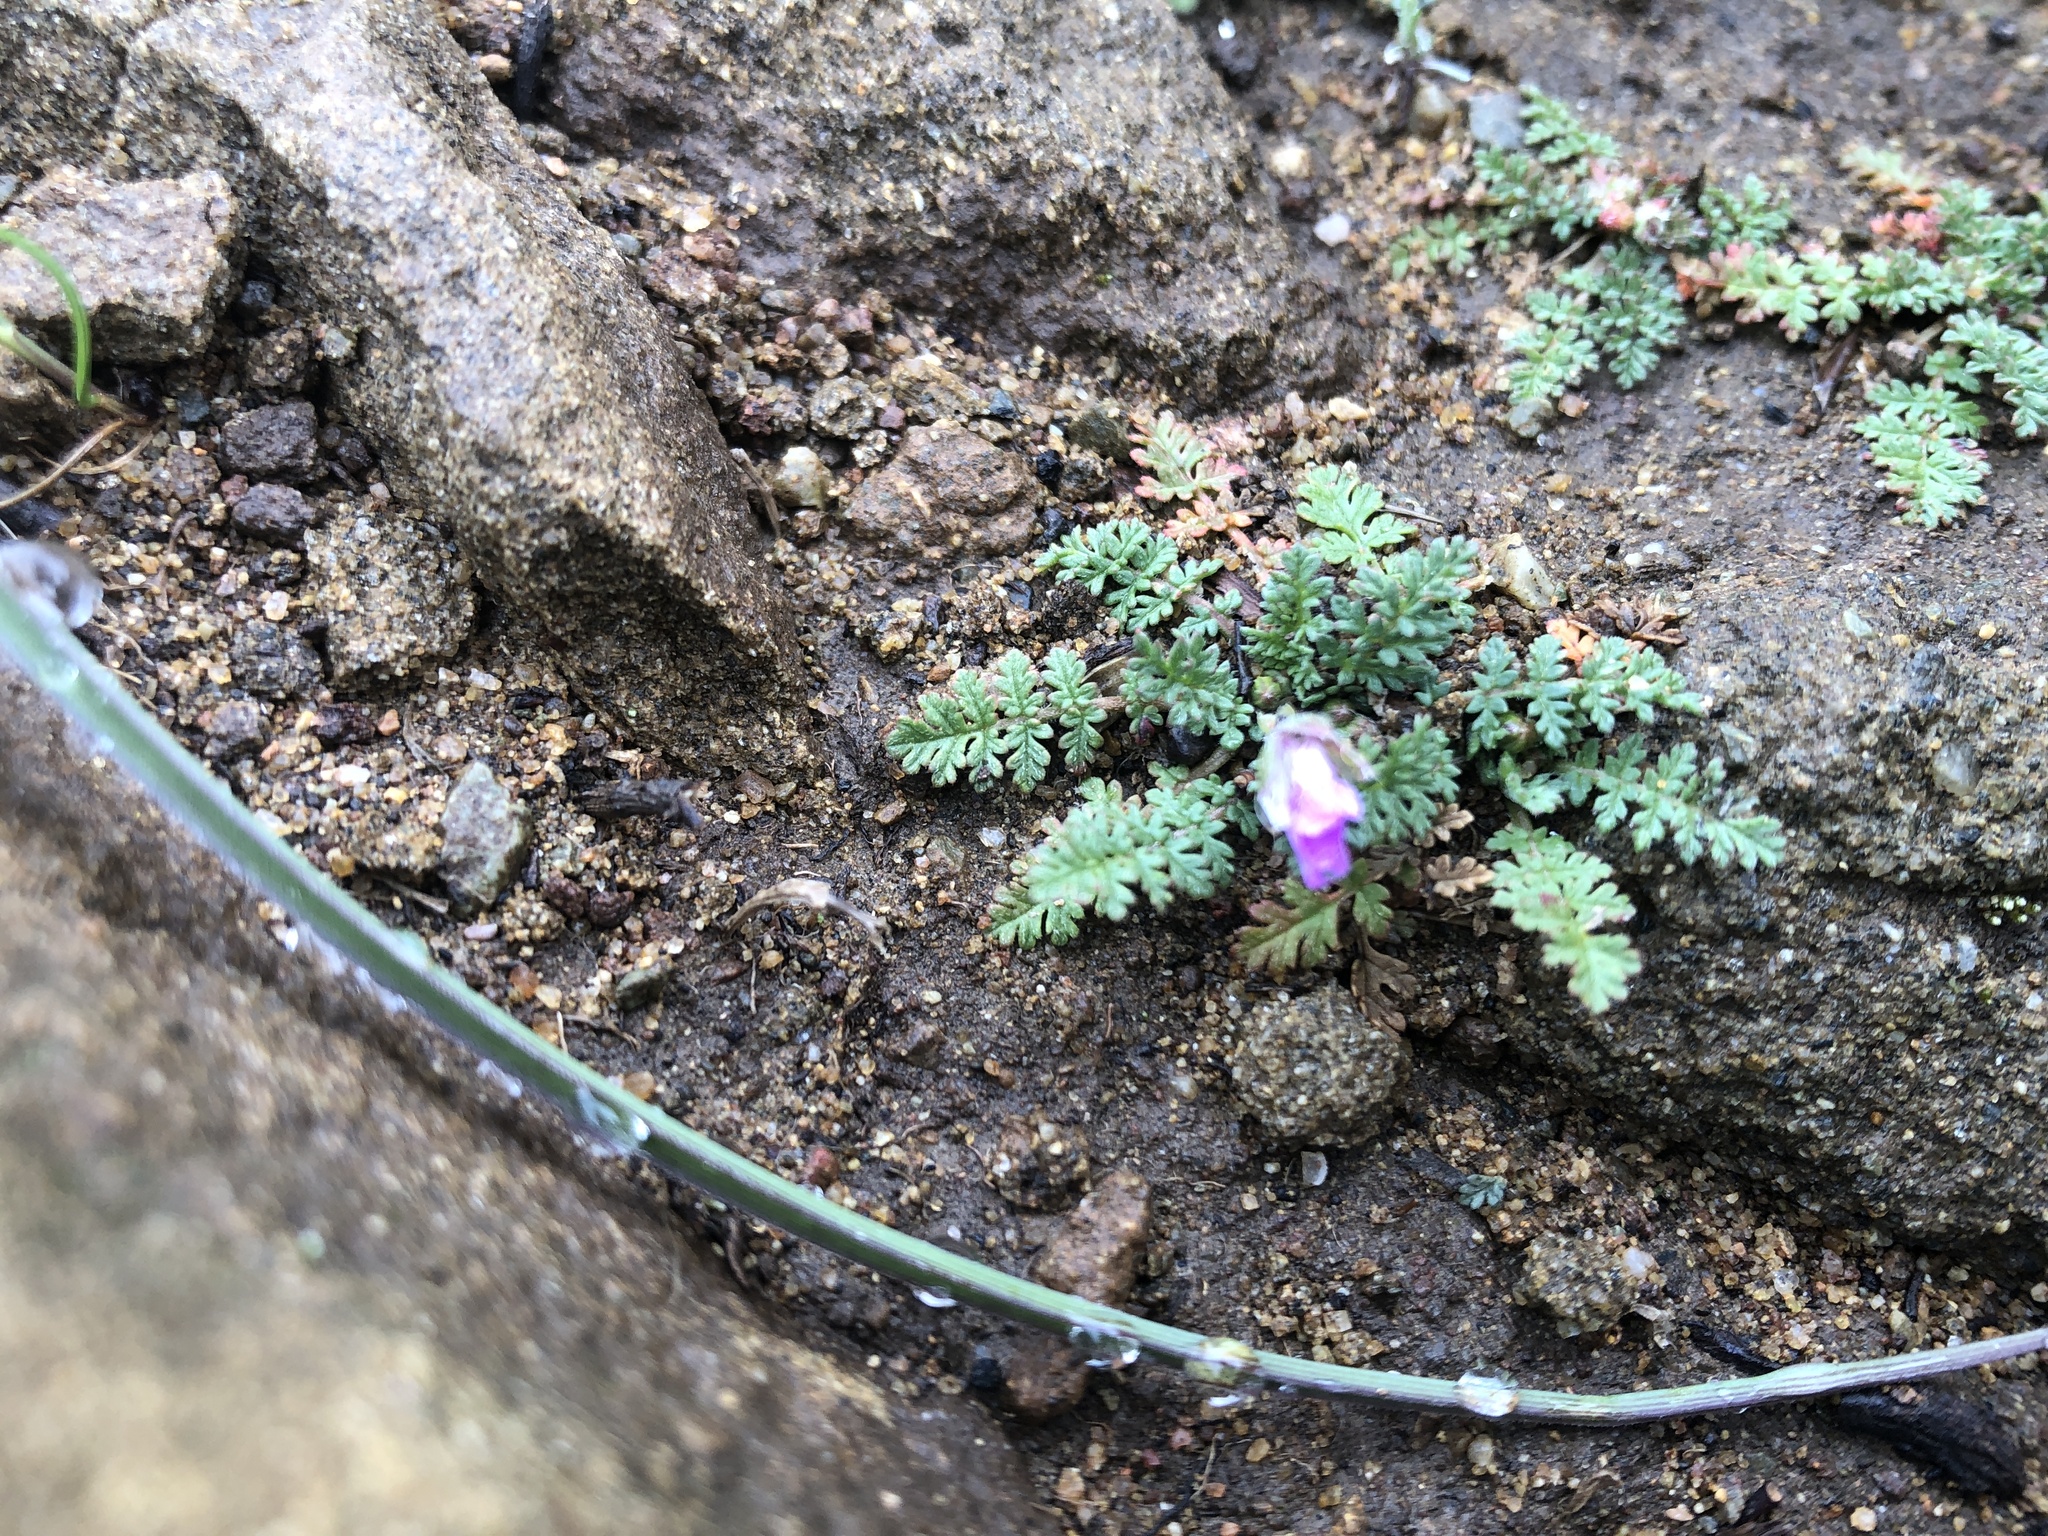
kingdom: Plantae
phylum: Tracheophyta
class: Magnoliopsida
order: Geraniales
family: Geraniaceae
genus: Erodium
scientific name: Erodium cicutarium
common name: Common stork's-bill
